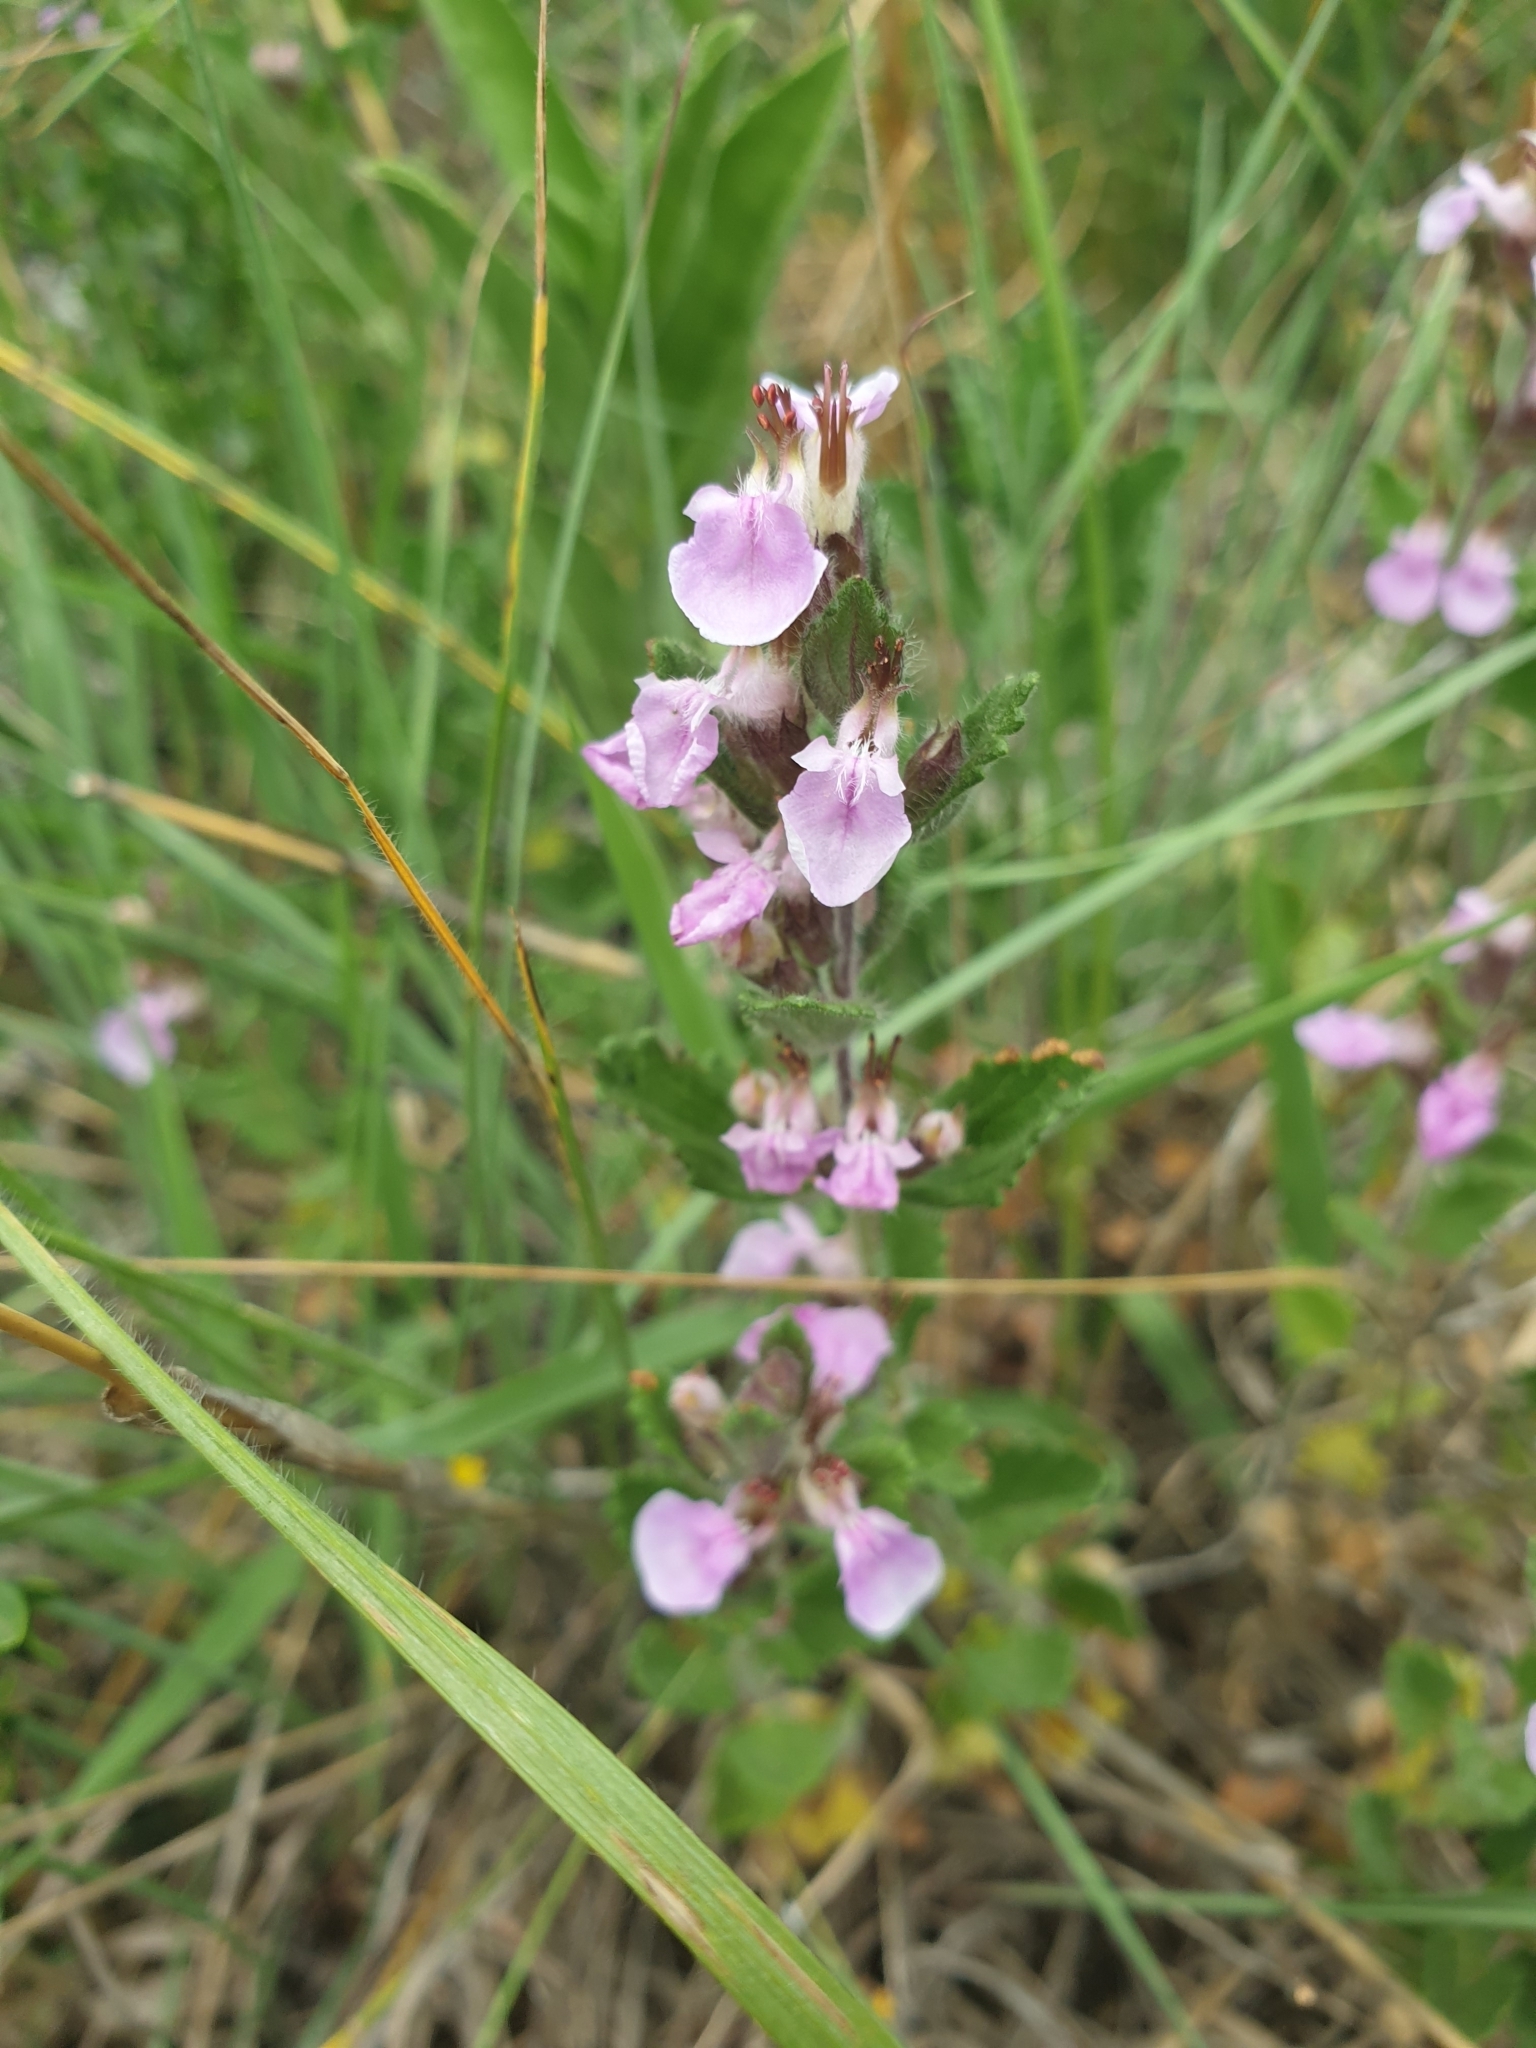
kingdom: Plantae
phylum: Tracheophyta
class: Magnoliopsida
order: Lamiales
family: Lamiaceae
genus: Teucrium
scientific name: Teucrium chamaedrys
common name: Wall germander
